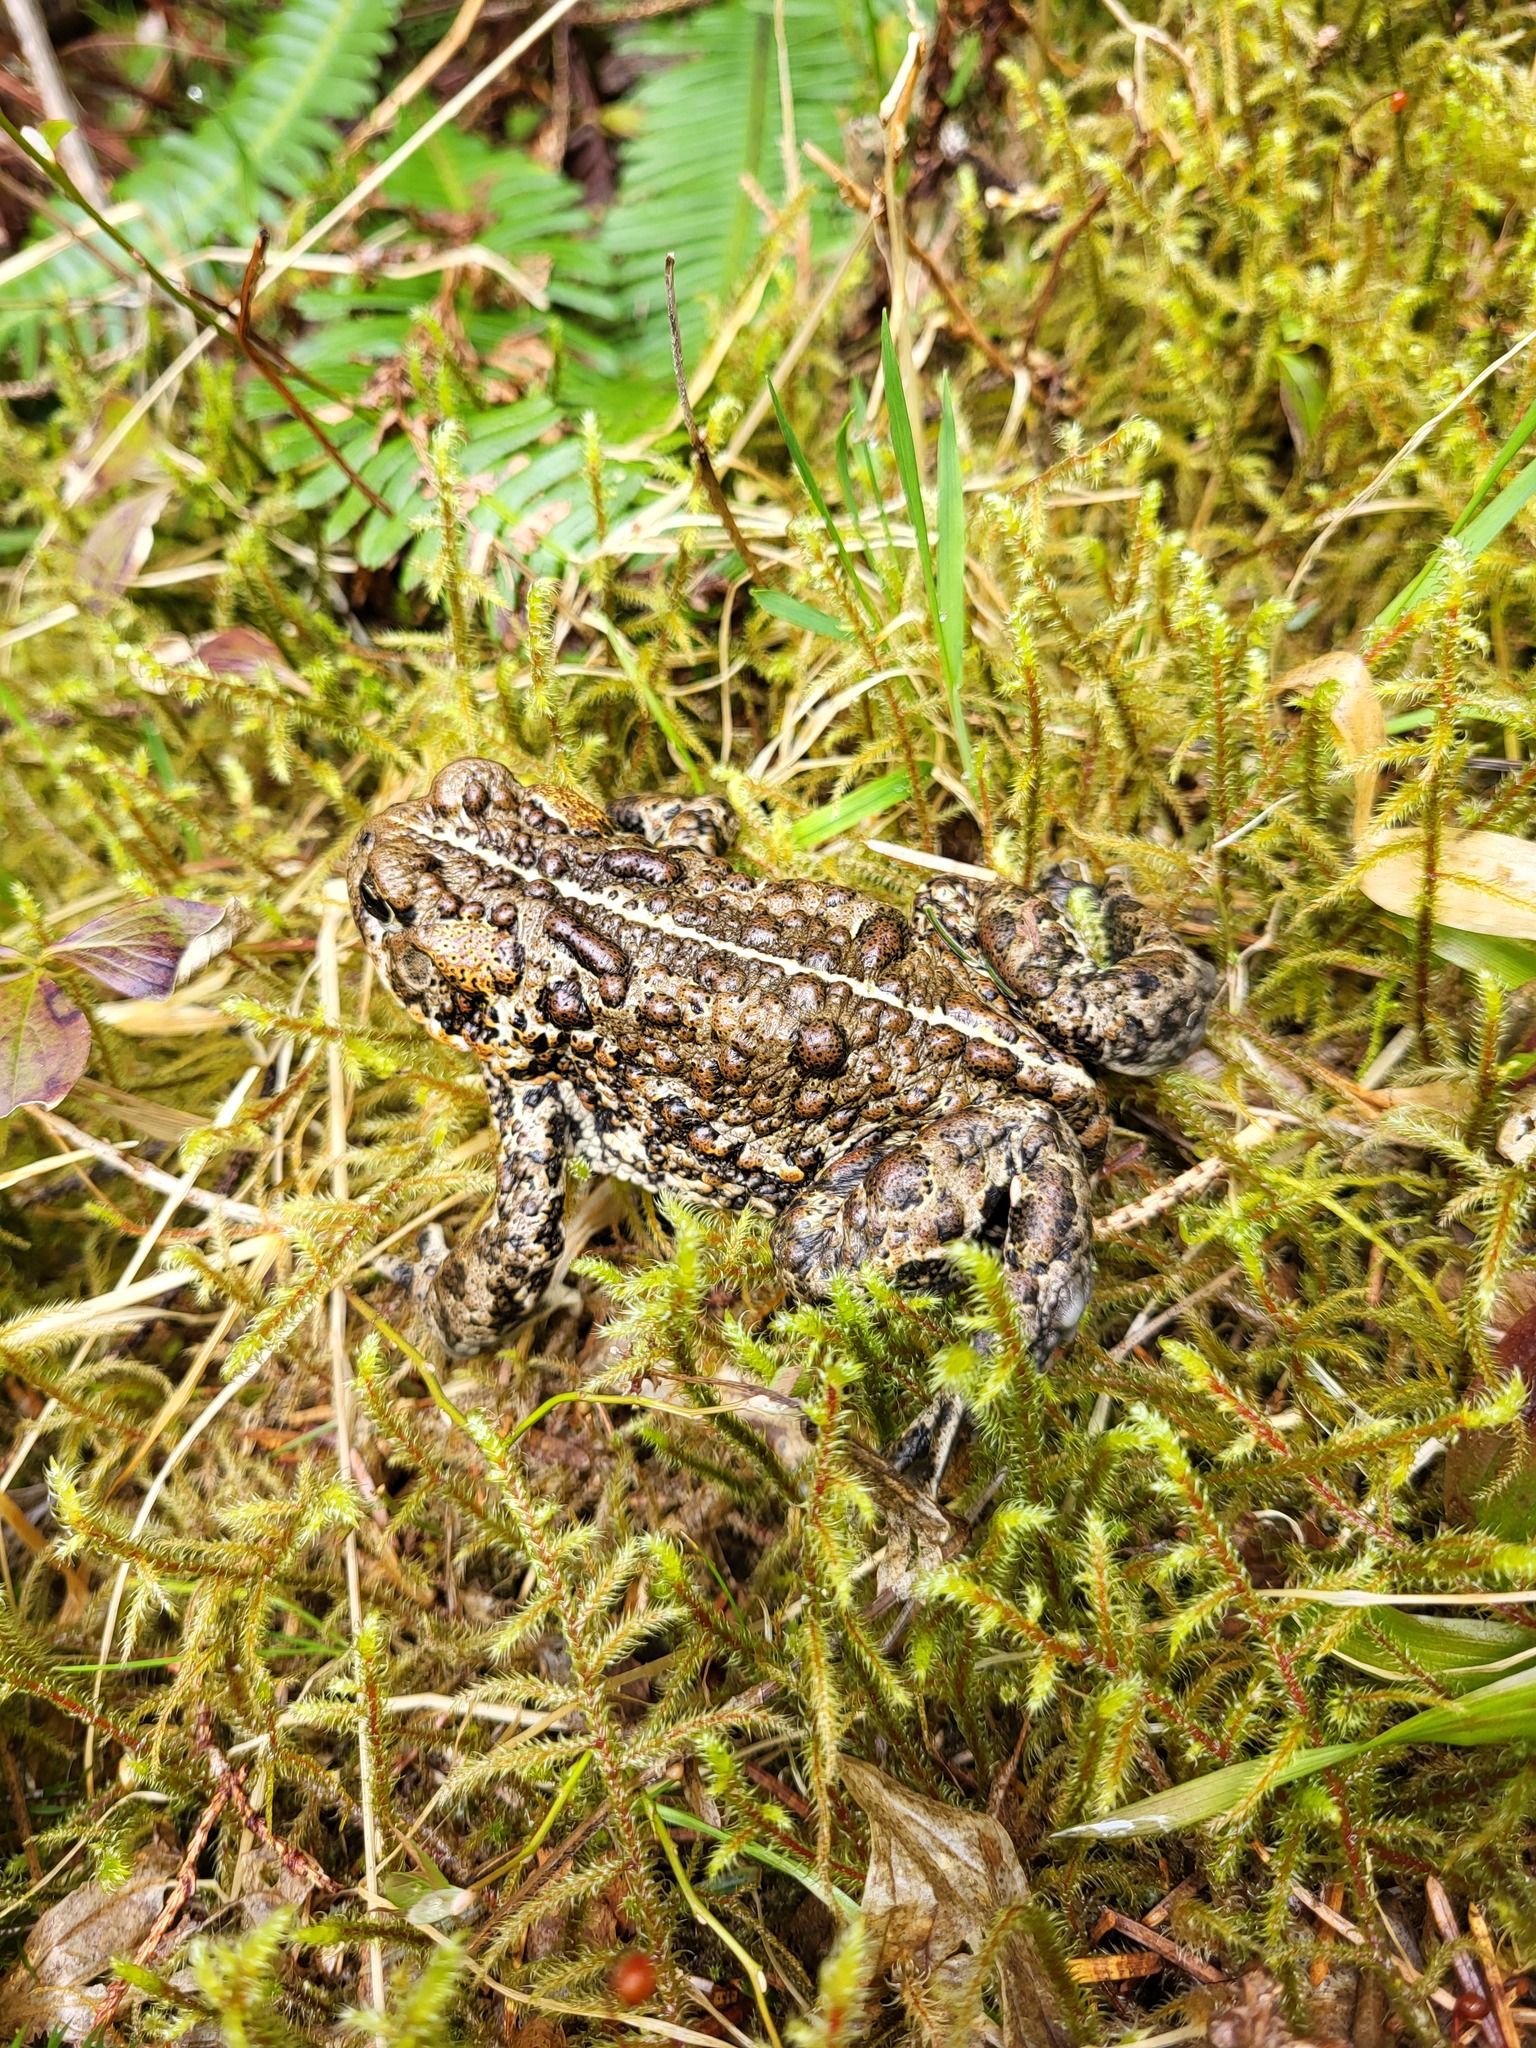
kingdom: Animalia
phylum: Chordata
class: Amphibia
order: Anura
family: Bufonidae
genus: Anaxyrus
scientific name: Anaxyrus boreas
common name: Western toad
